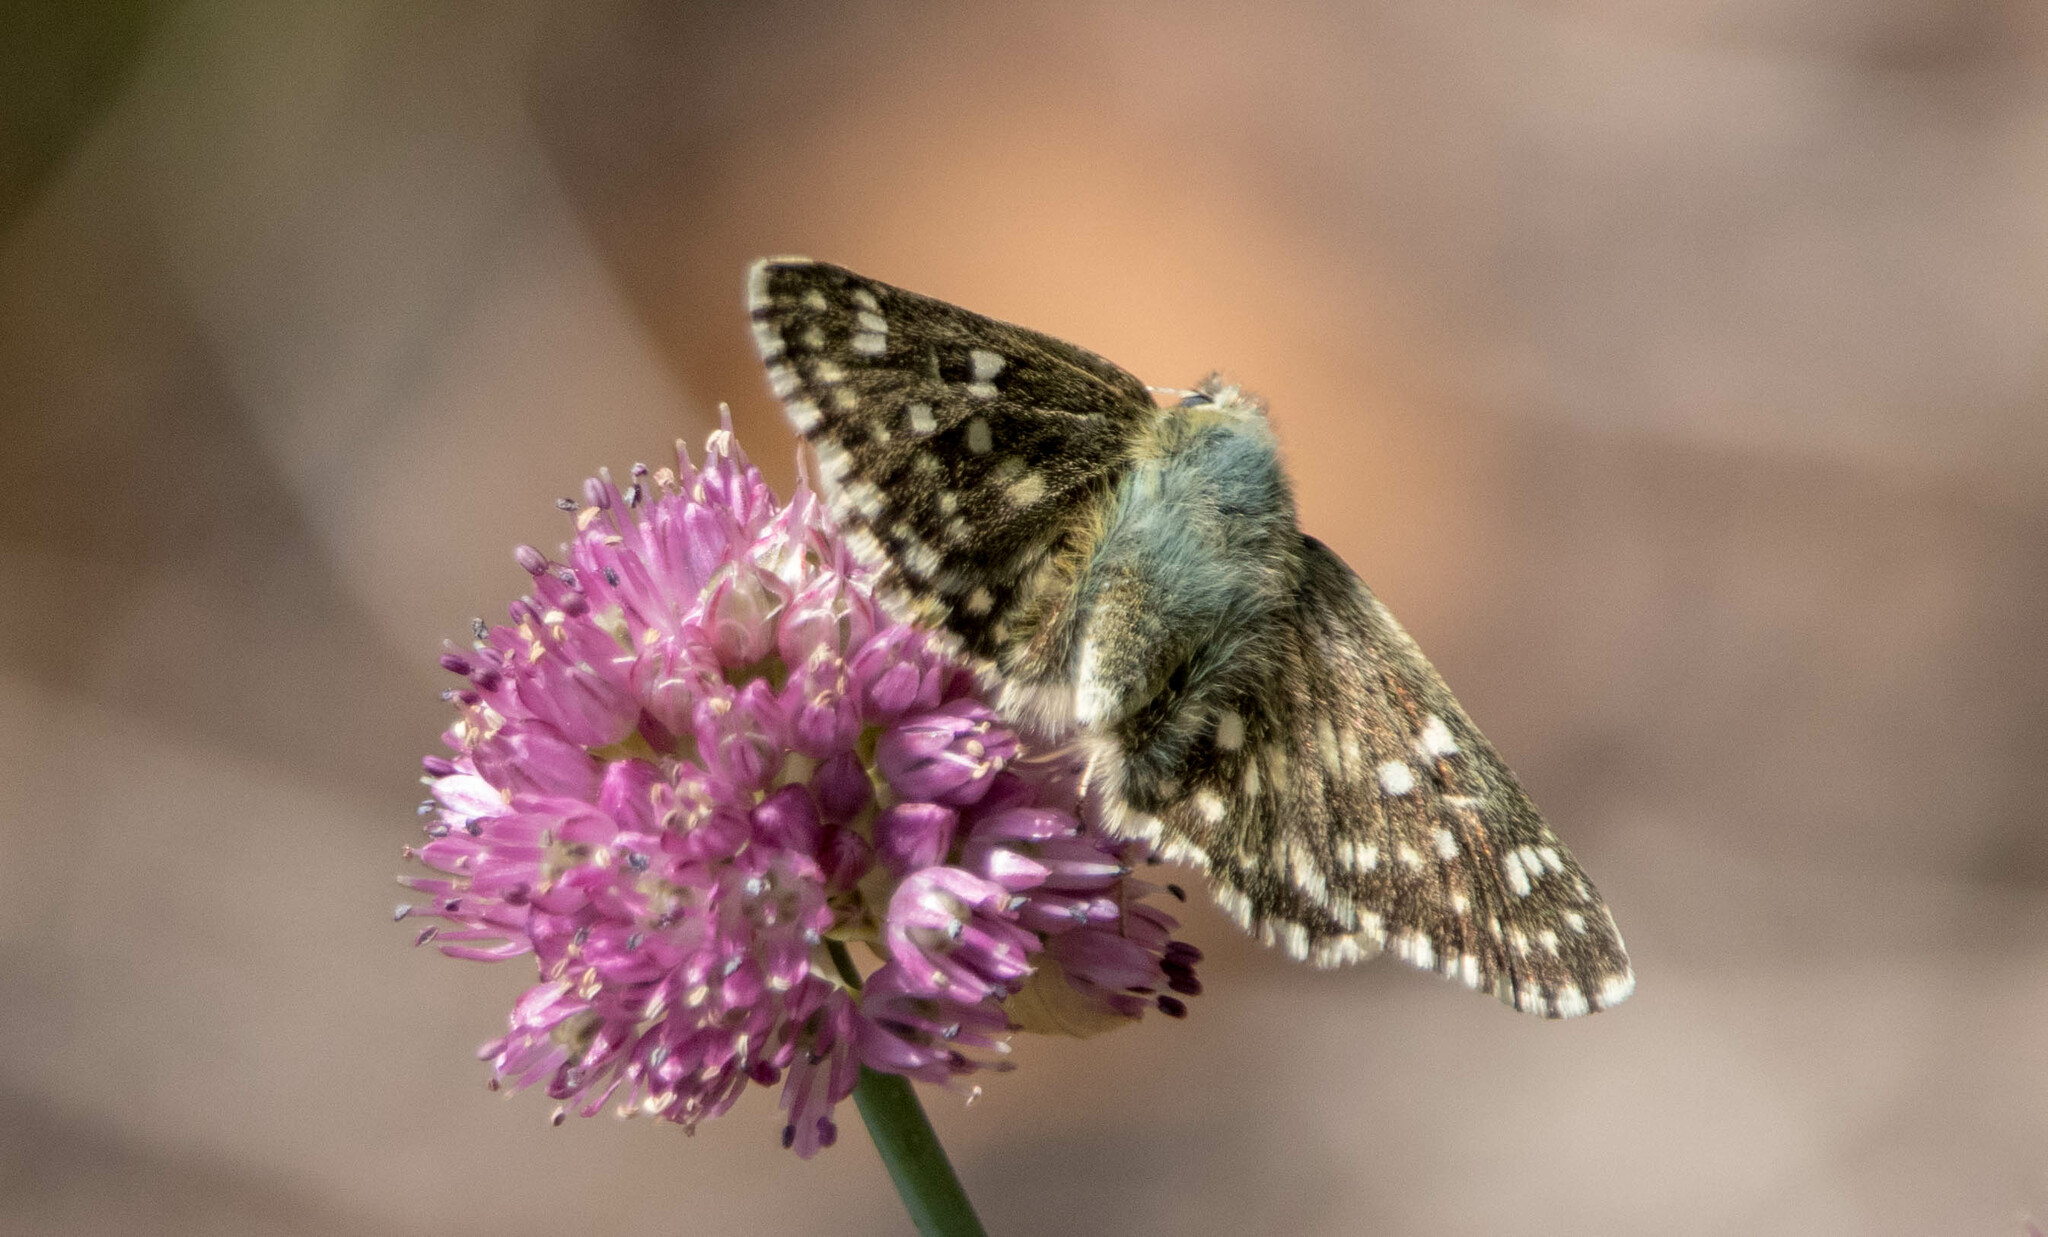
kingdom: Animalia
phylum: Arthropoda
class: Insecta
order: Lepidoptera
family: Hesperiidae
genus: Syrichtus
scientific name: Syrichtus tessellum
